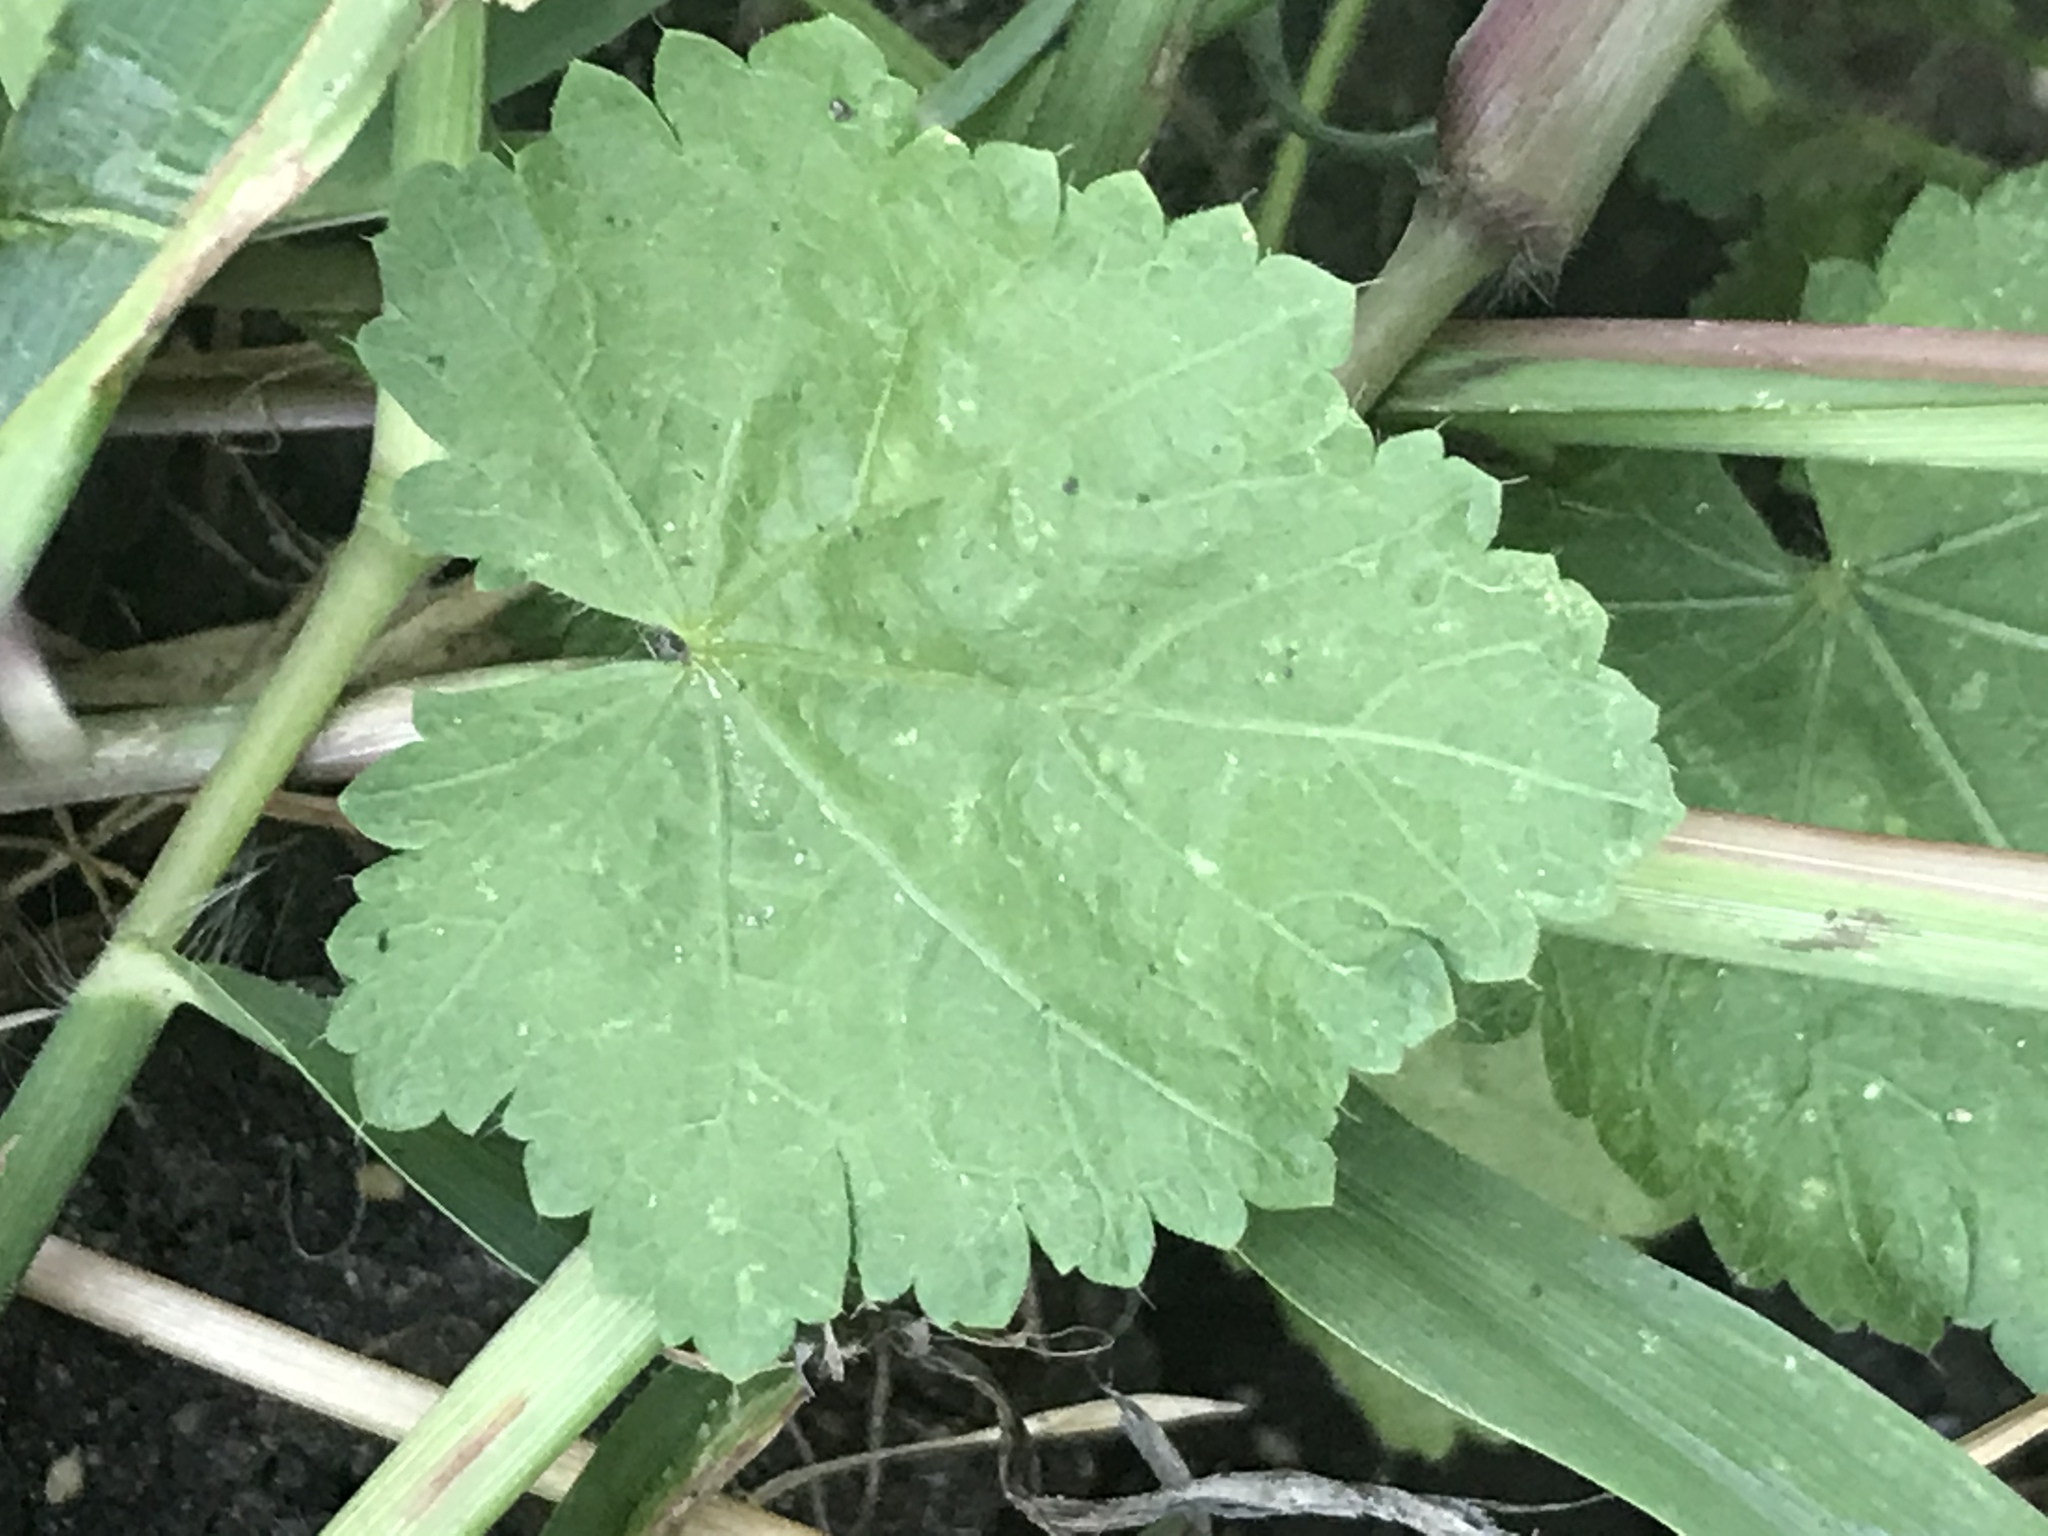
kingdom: Plantae
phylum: Tracheophyta
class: Magnoliopsida
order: Malvales
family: Malvaceae
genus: Modiola
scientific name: Modiola caroliniana
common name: Carolina bristlemallow
